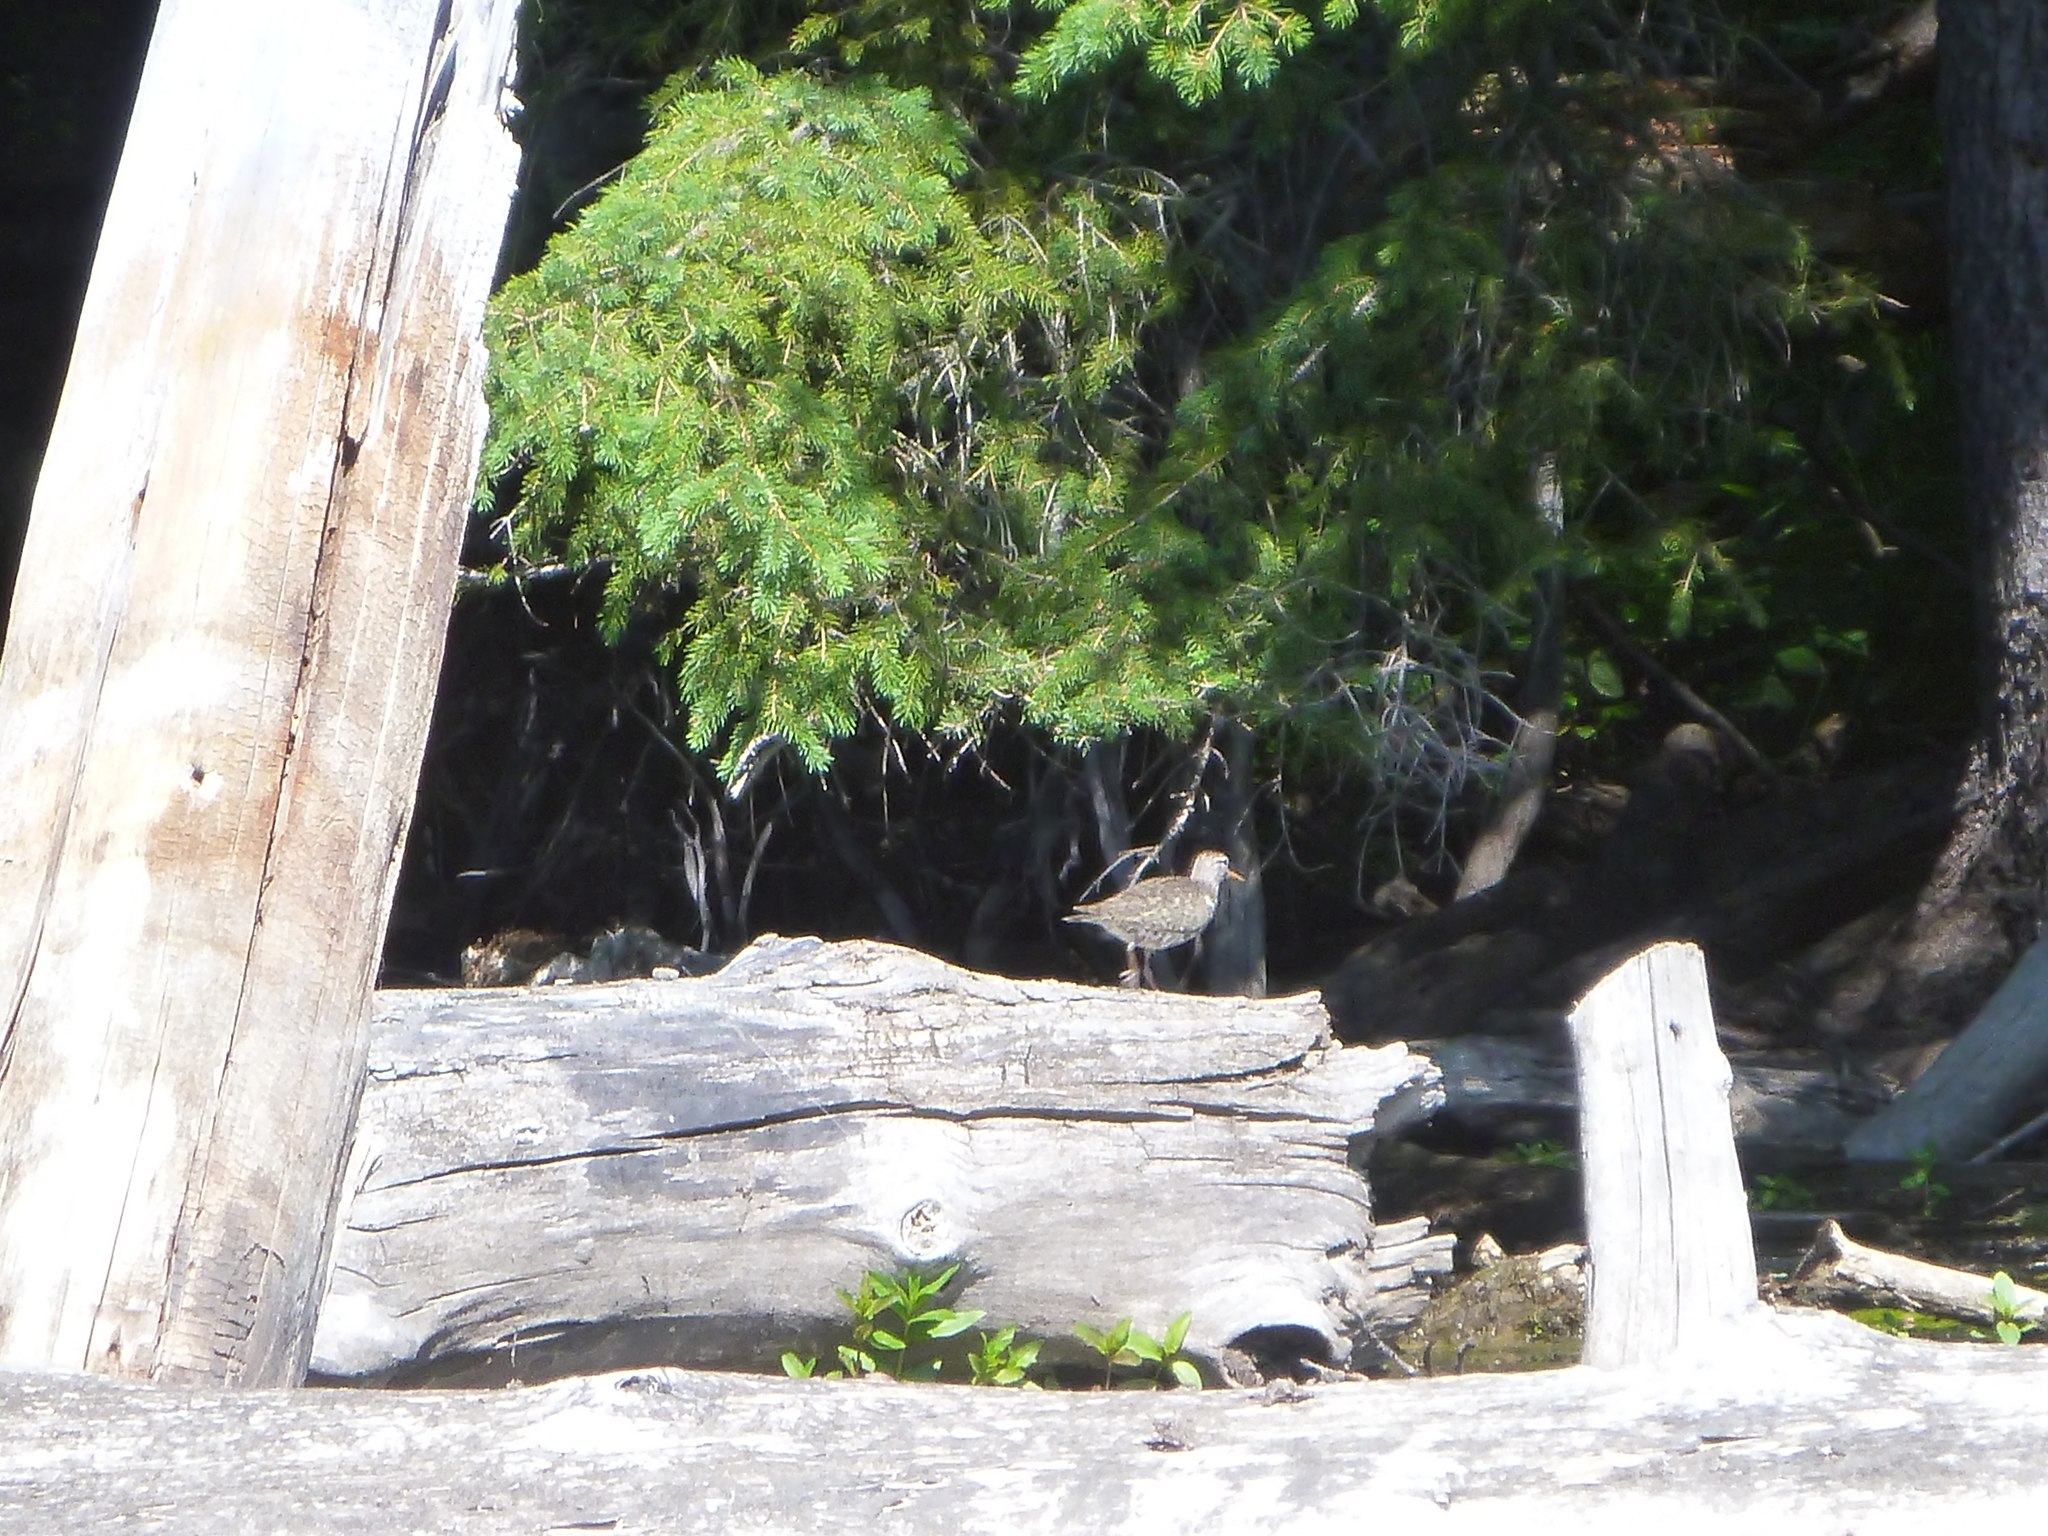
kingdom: Animalia
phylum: Chordata
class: Aves
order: Charadriiformes
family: Scolopacidae
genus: Actitis
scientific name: Actitis macularius
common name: Spotted sandpiper
